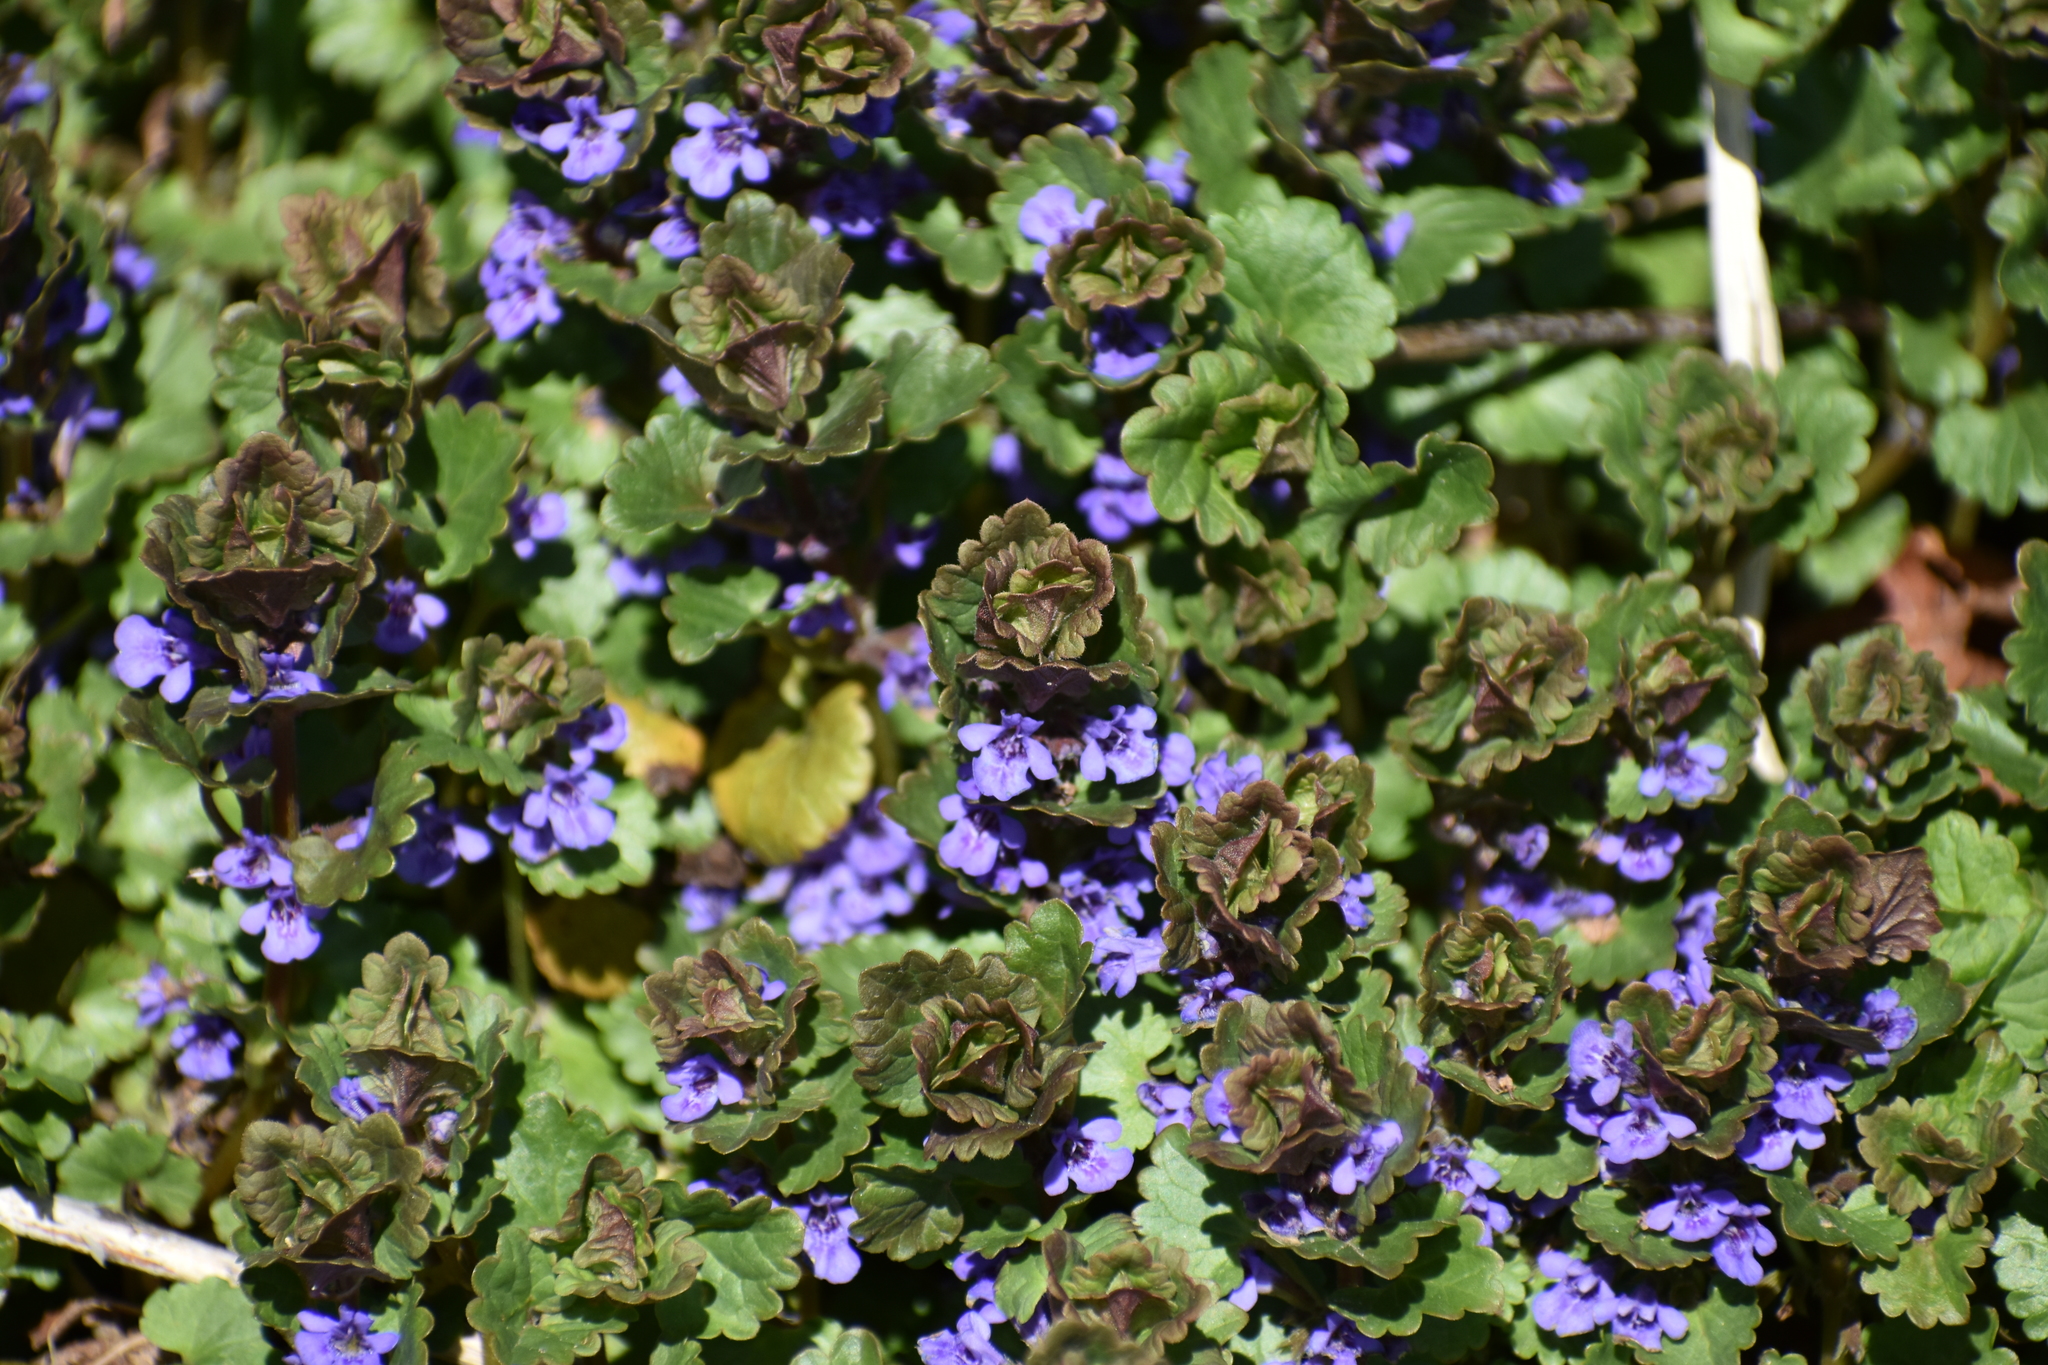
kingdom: Plantae
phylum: Tracheophyta
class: Magnoliopsida
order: Lamiales
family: Lamiaceae
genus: Glechoma
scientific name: Glechoma hederacea
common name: Ground ivy
